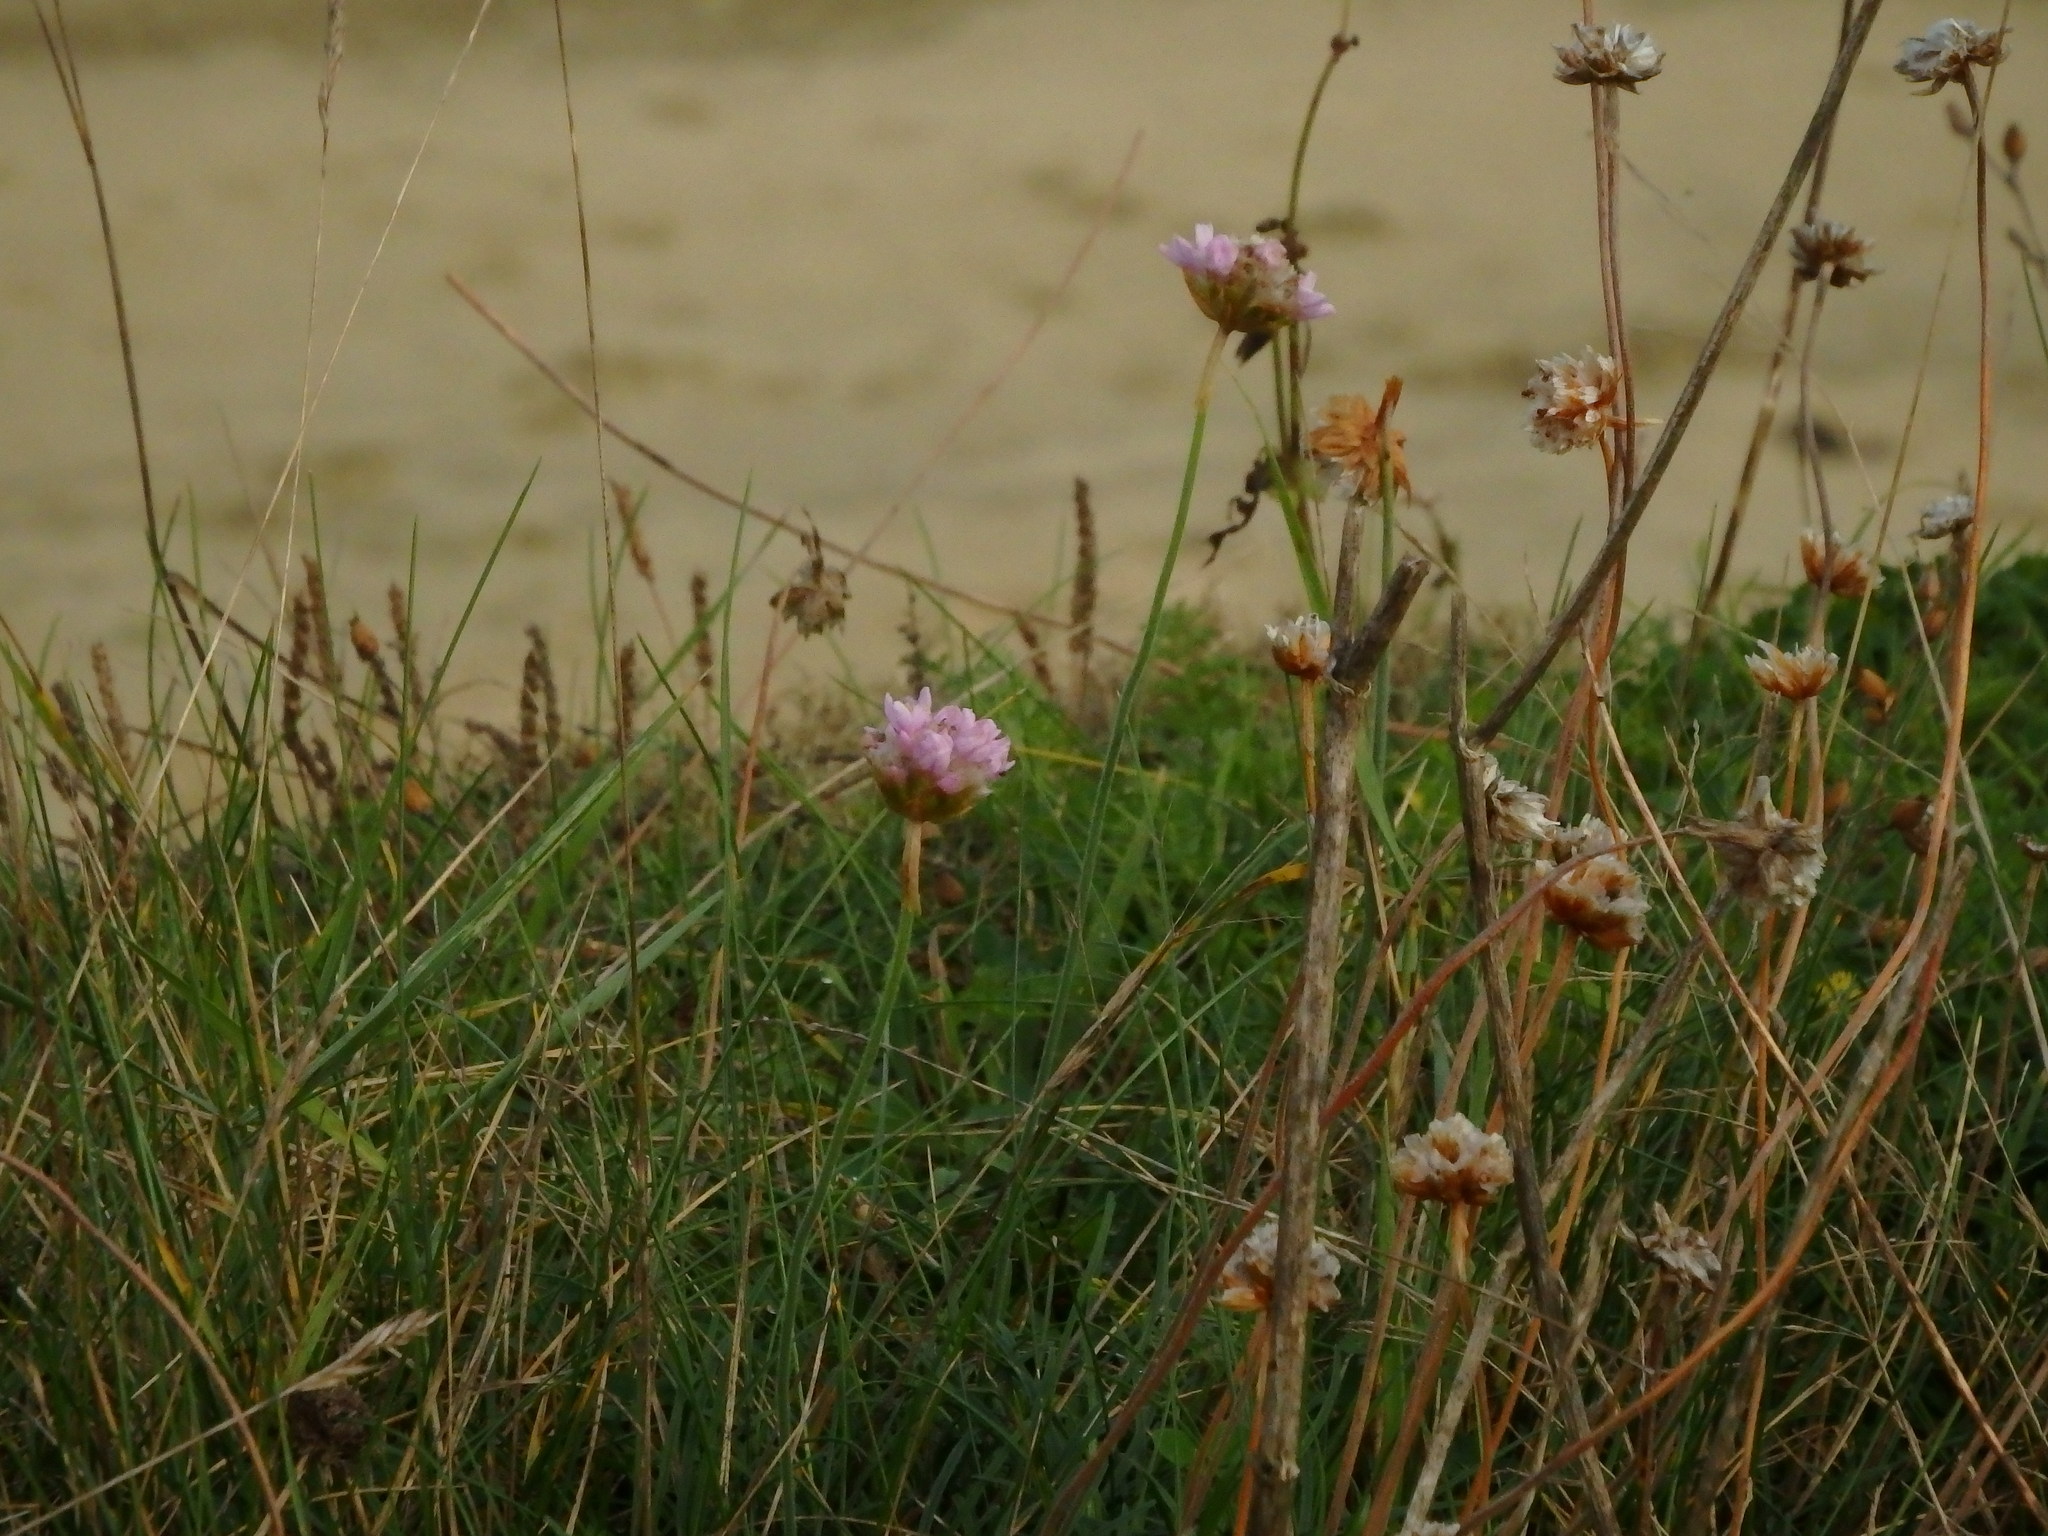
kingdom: Plantae
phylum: Tracheophyta
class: Magnoliopsida
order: Caryophyllales
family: Plumbaginaceae
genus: Armeria
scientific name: Armeria maritima
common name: Thrift
